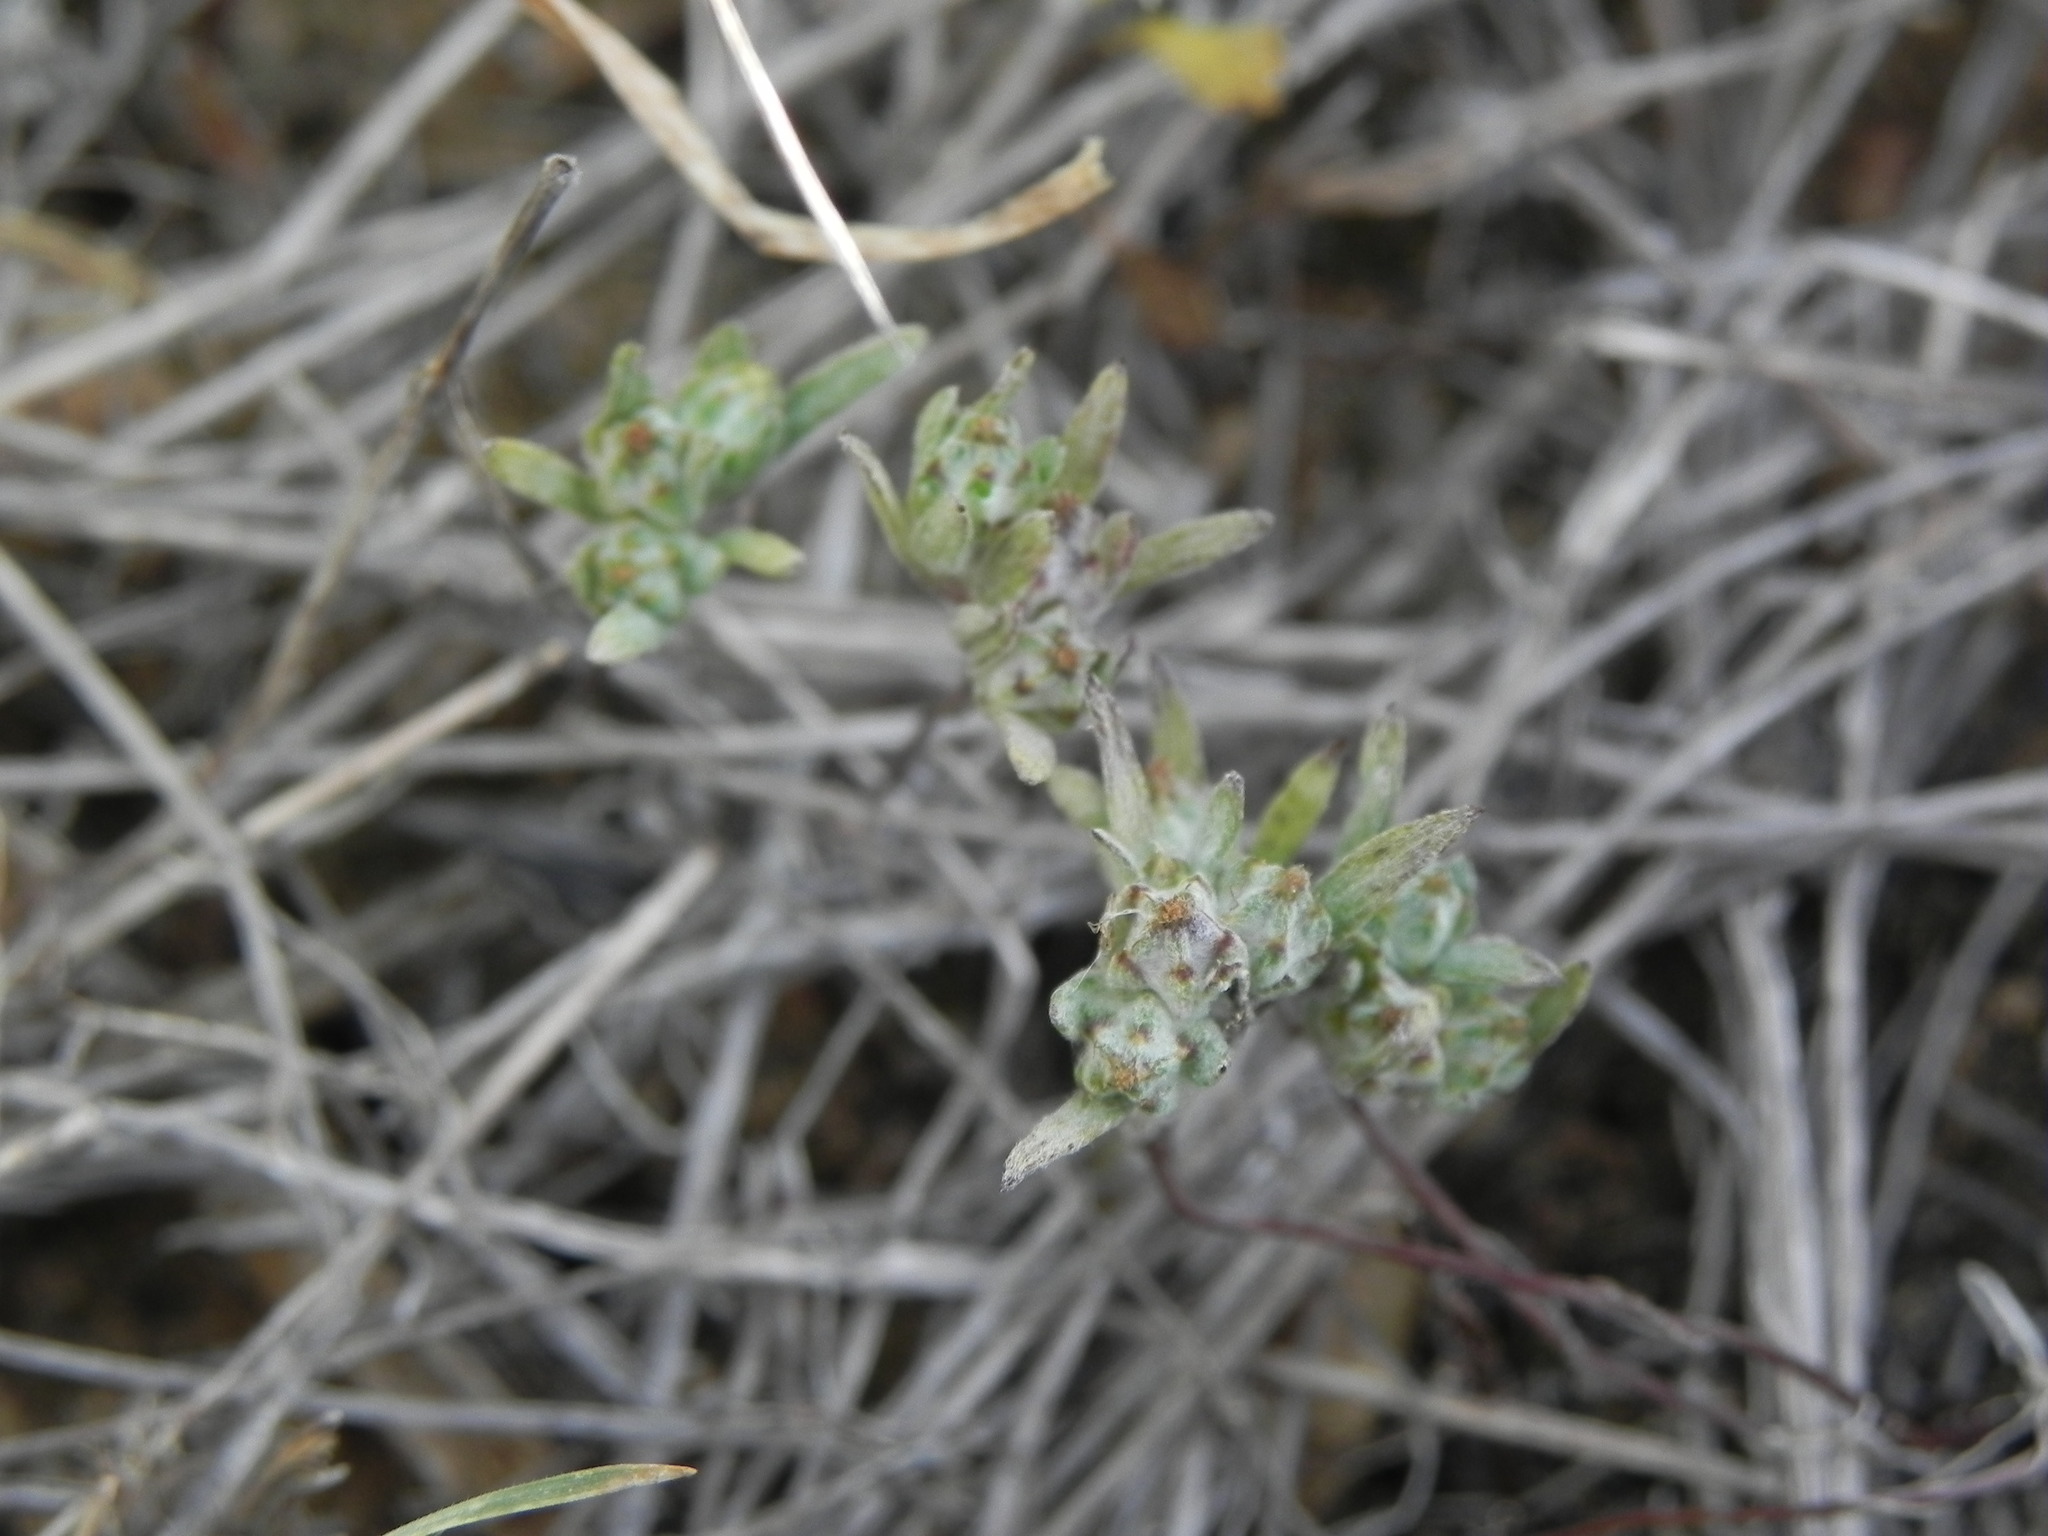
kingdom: Plantae
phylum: Tracheophyta
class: Magnoliopsida
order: Asterales
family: Asteraceae
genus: Logfia
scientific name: Logfia arizonica
